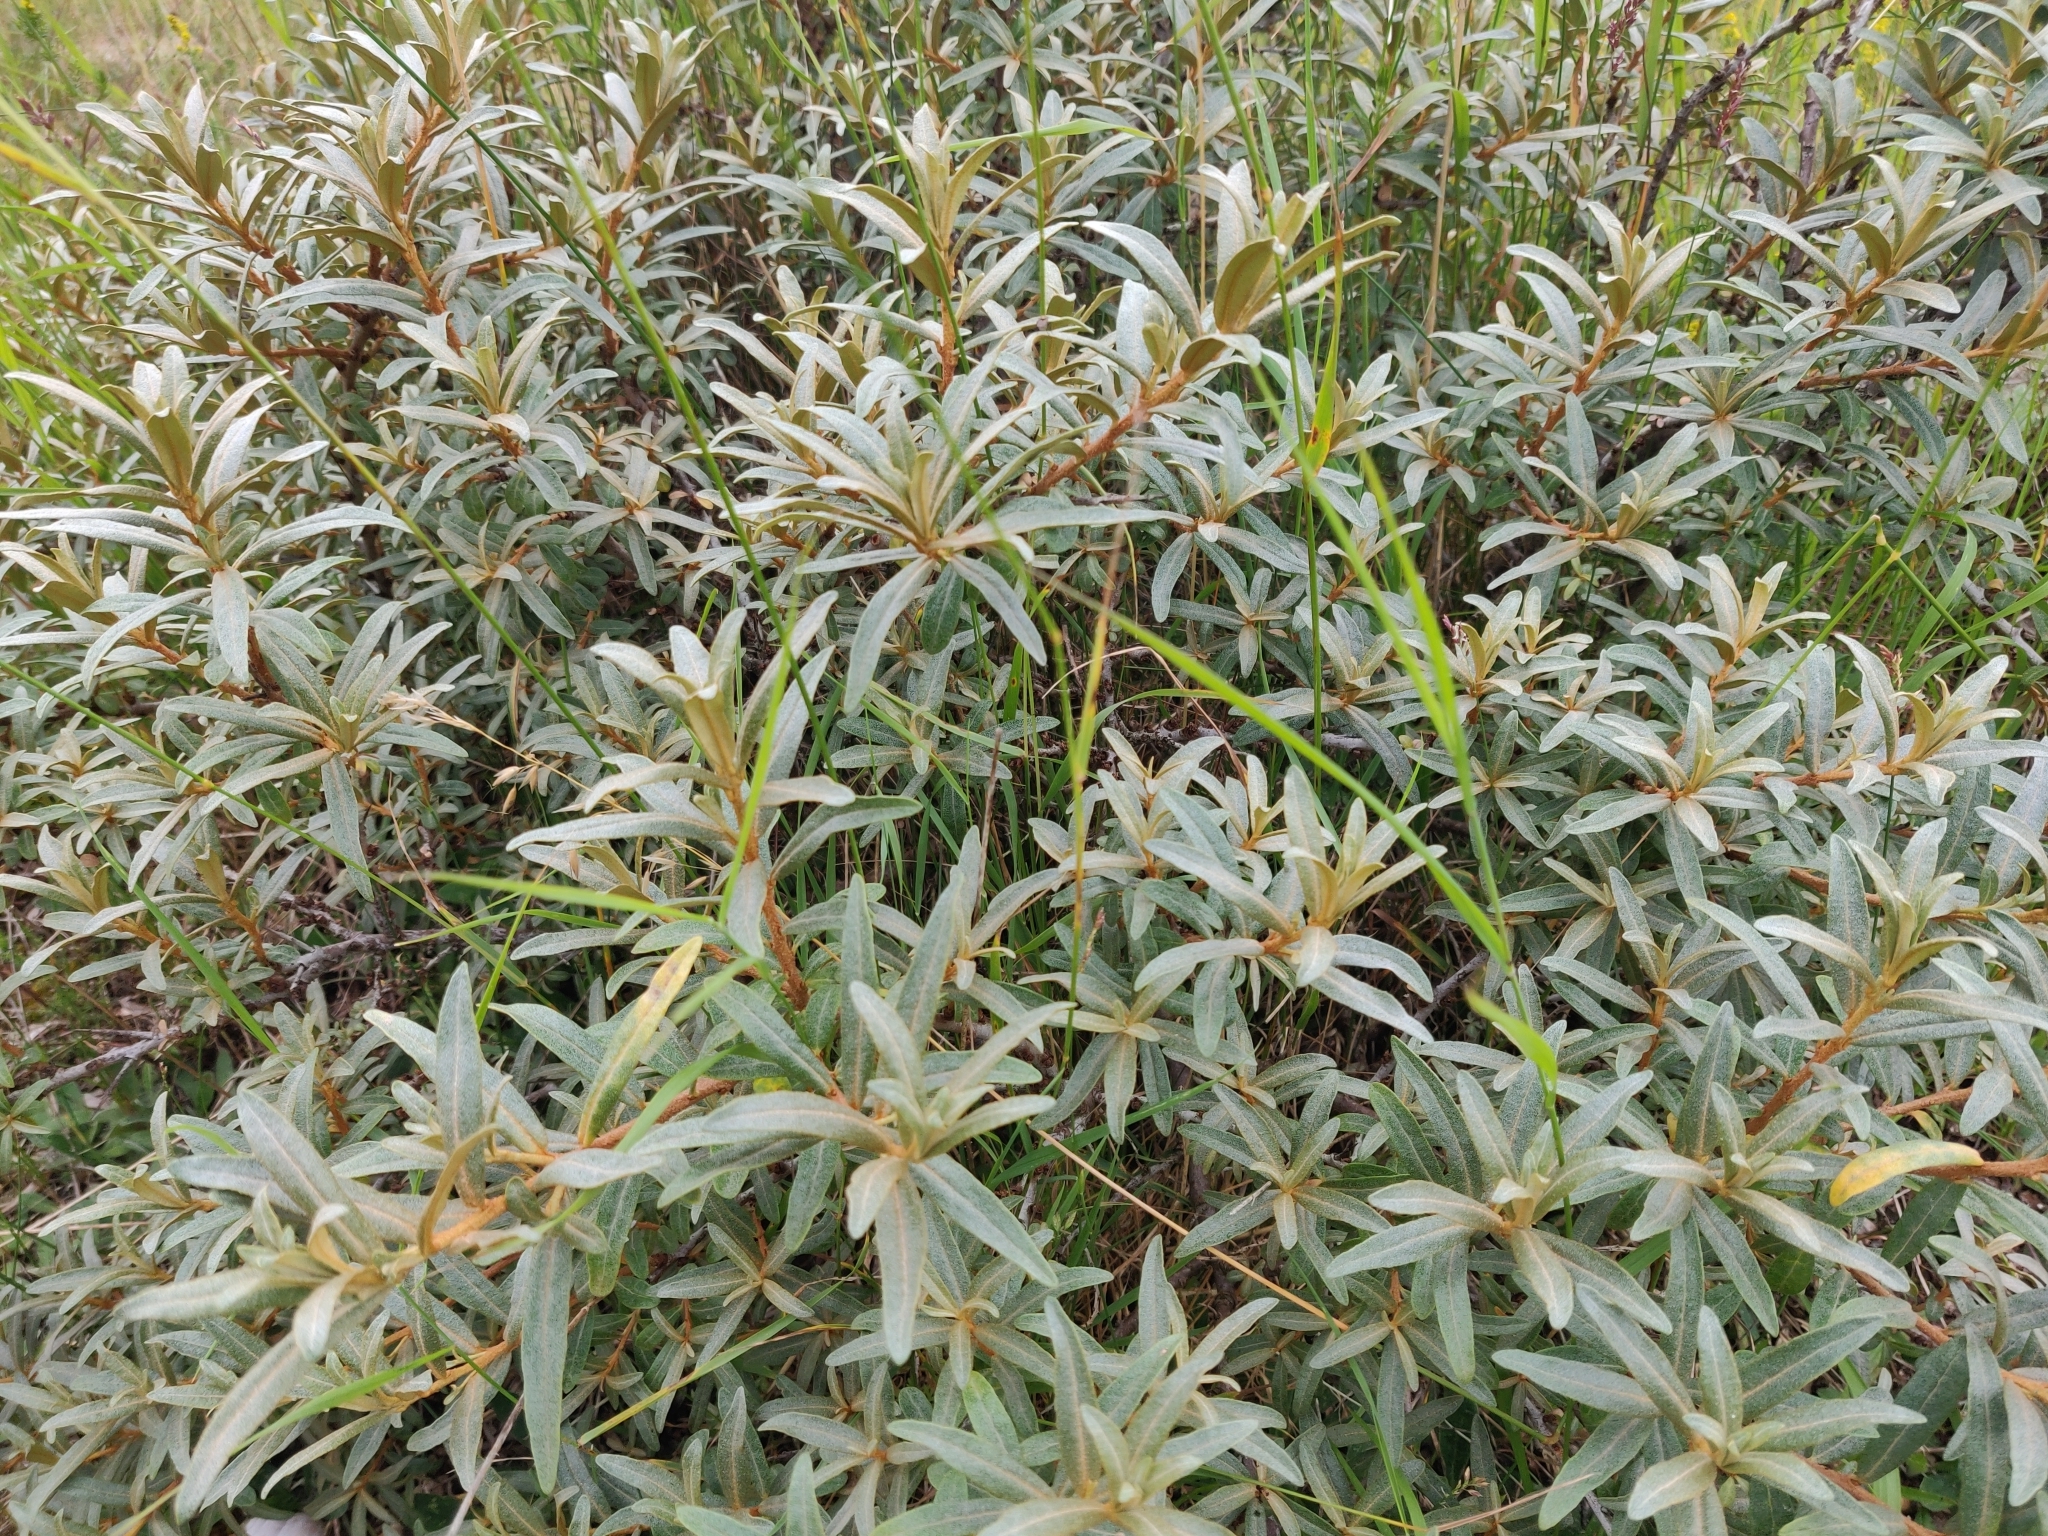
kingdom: Plantae
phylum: Tracheophyta
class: Magnoliopsida
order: Rosales
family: Elaeagnaceae
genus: Hippophae
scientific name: Hippophae rhamnoides
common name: Sea-buckthorn
